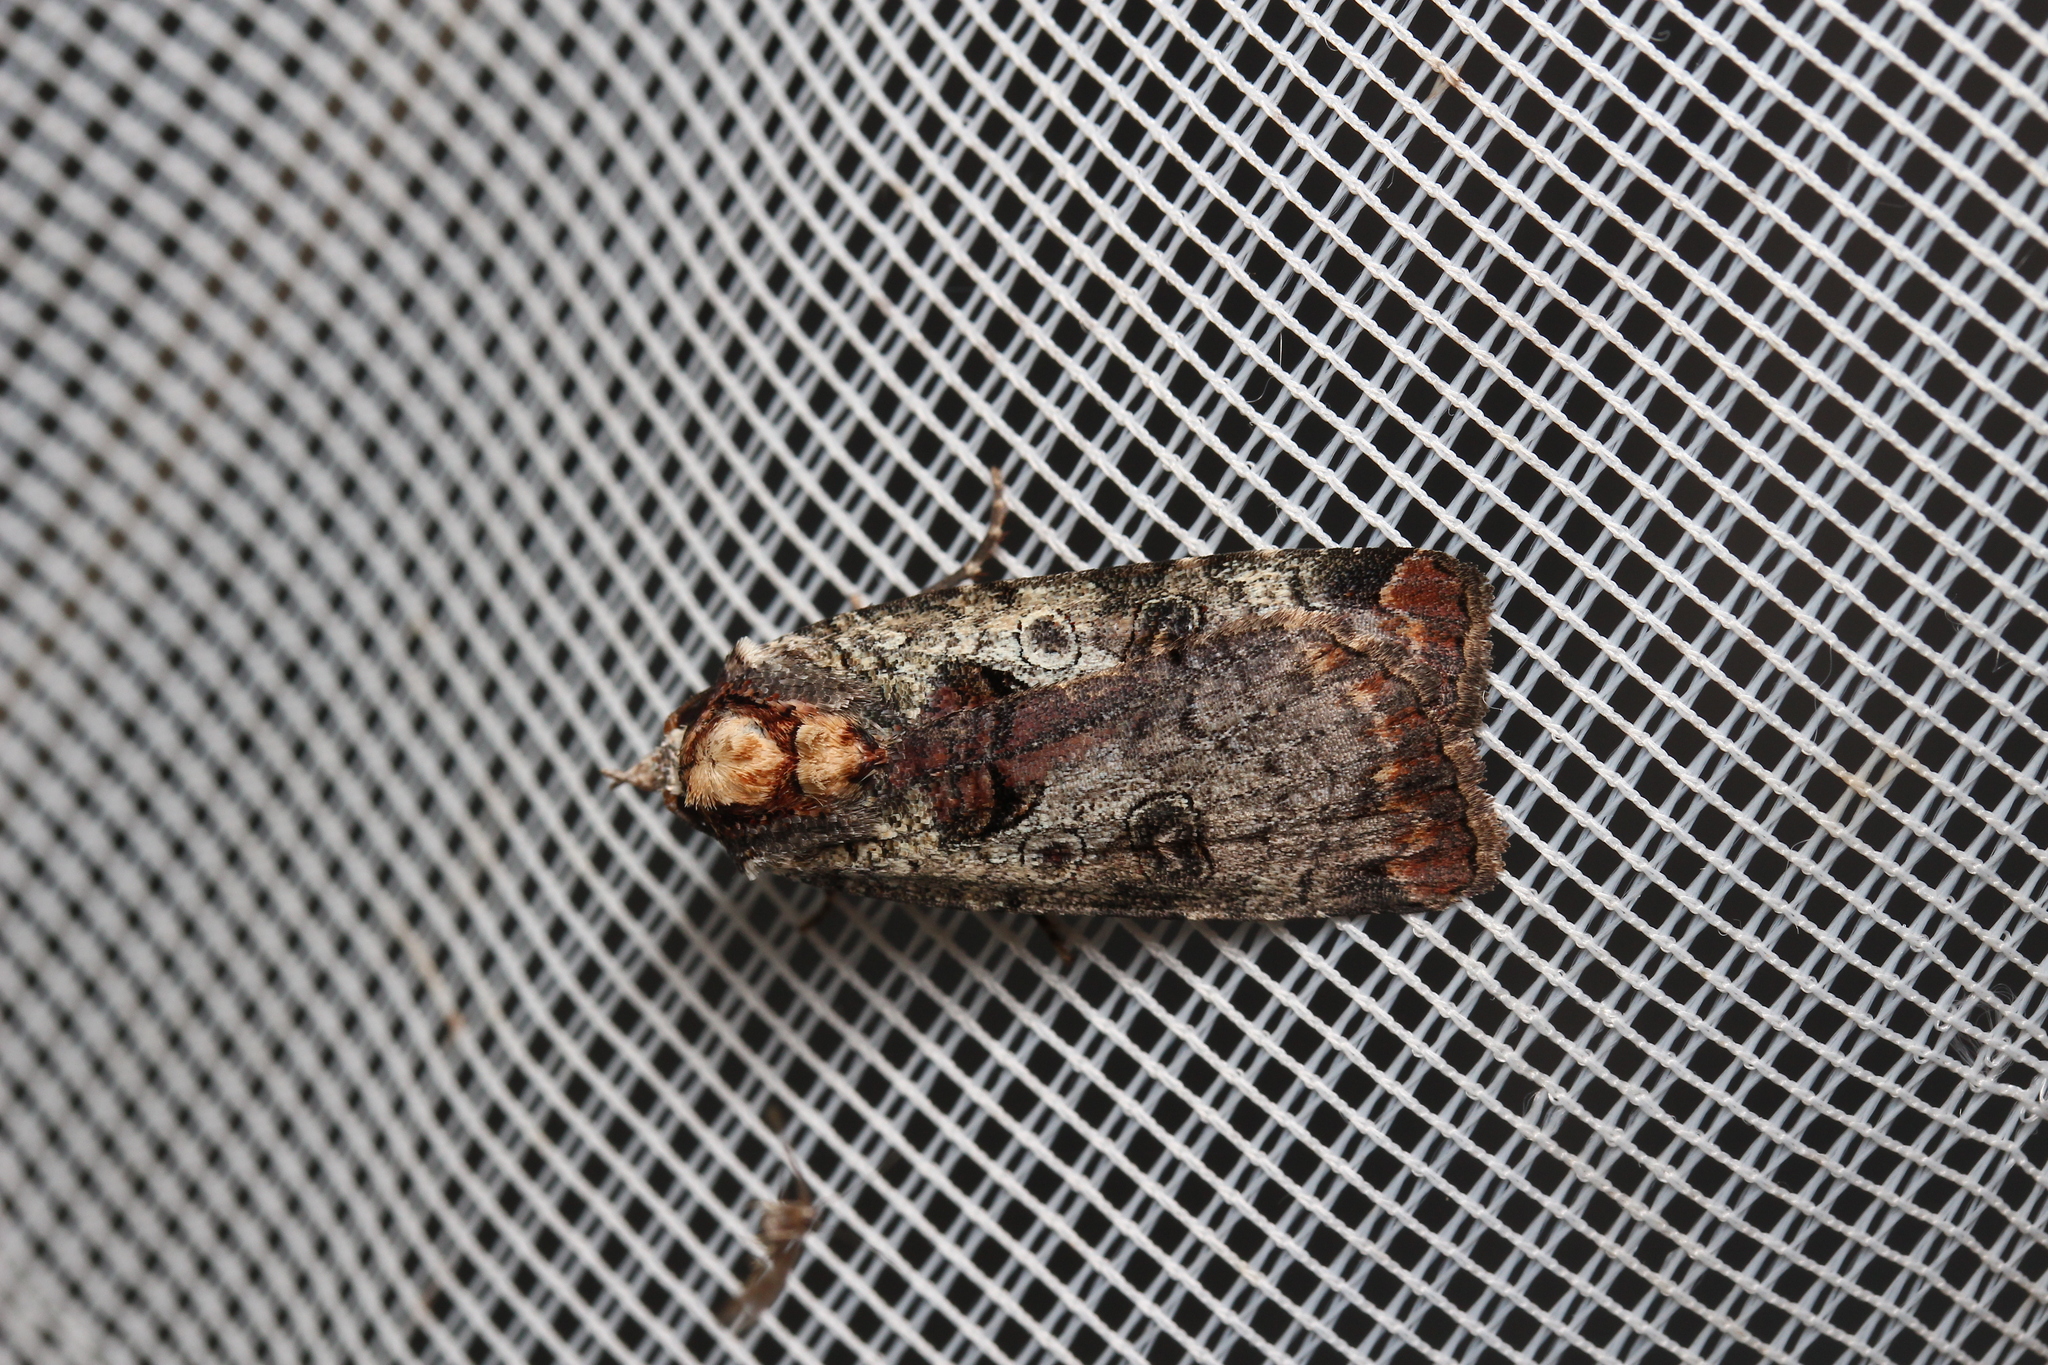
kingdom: Animalia
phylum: Arthropoda
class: Insecta
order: Lepidoptera
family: Noctuidae
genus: Epilecta
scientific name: Epilecta linogrisea
